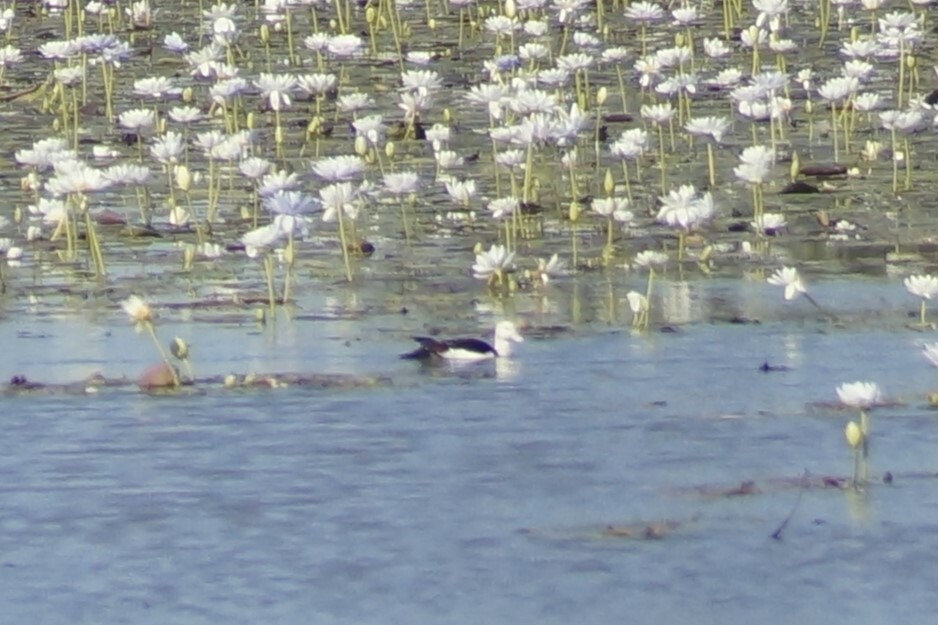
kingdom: Animalia
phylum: Chordata
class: Aves
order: Anseriformes
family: Anatidae
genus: Radjah
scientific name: Radjah radjah
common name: Radjah shelduck
